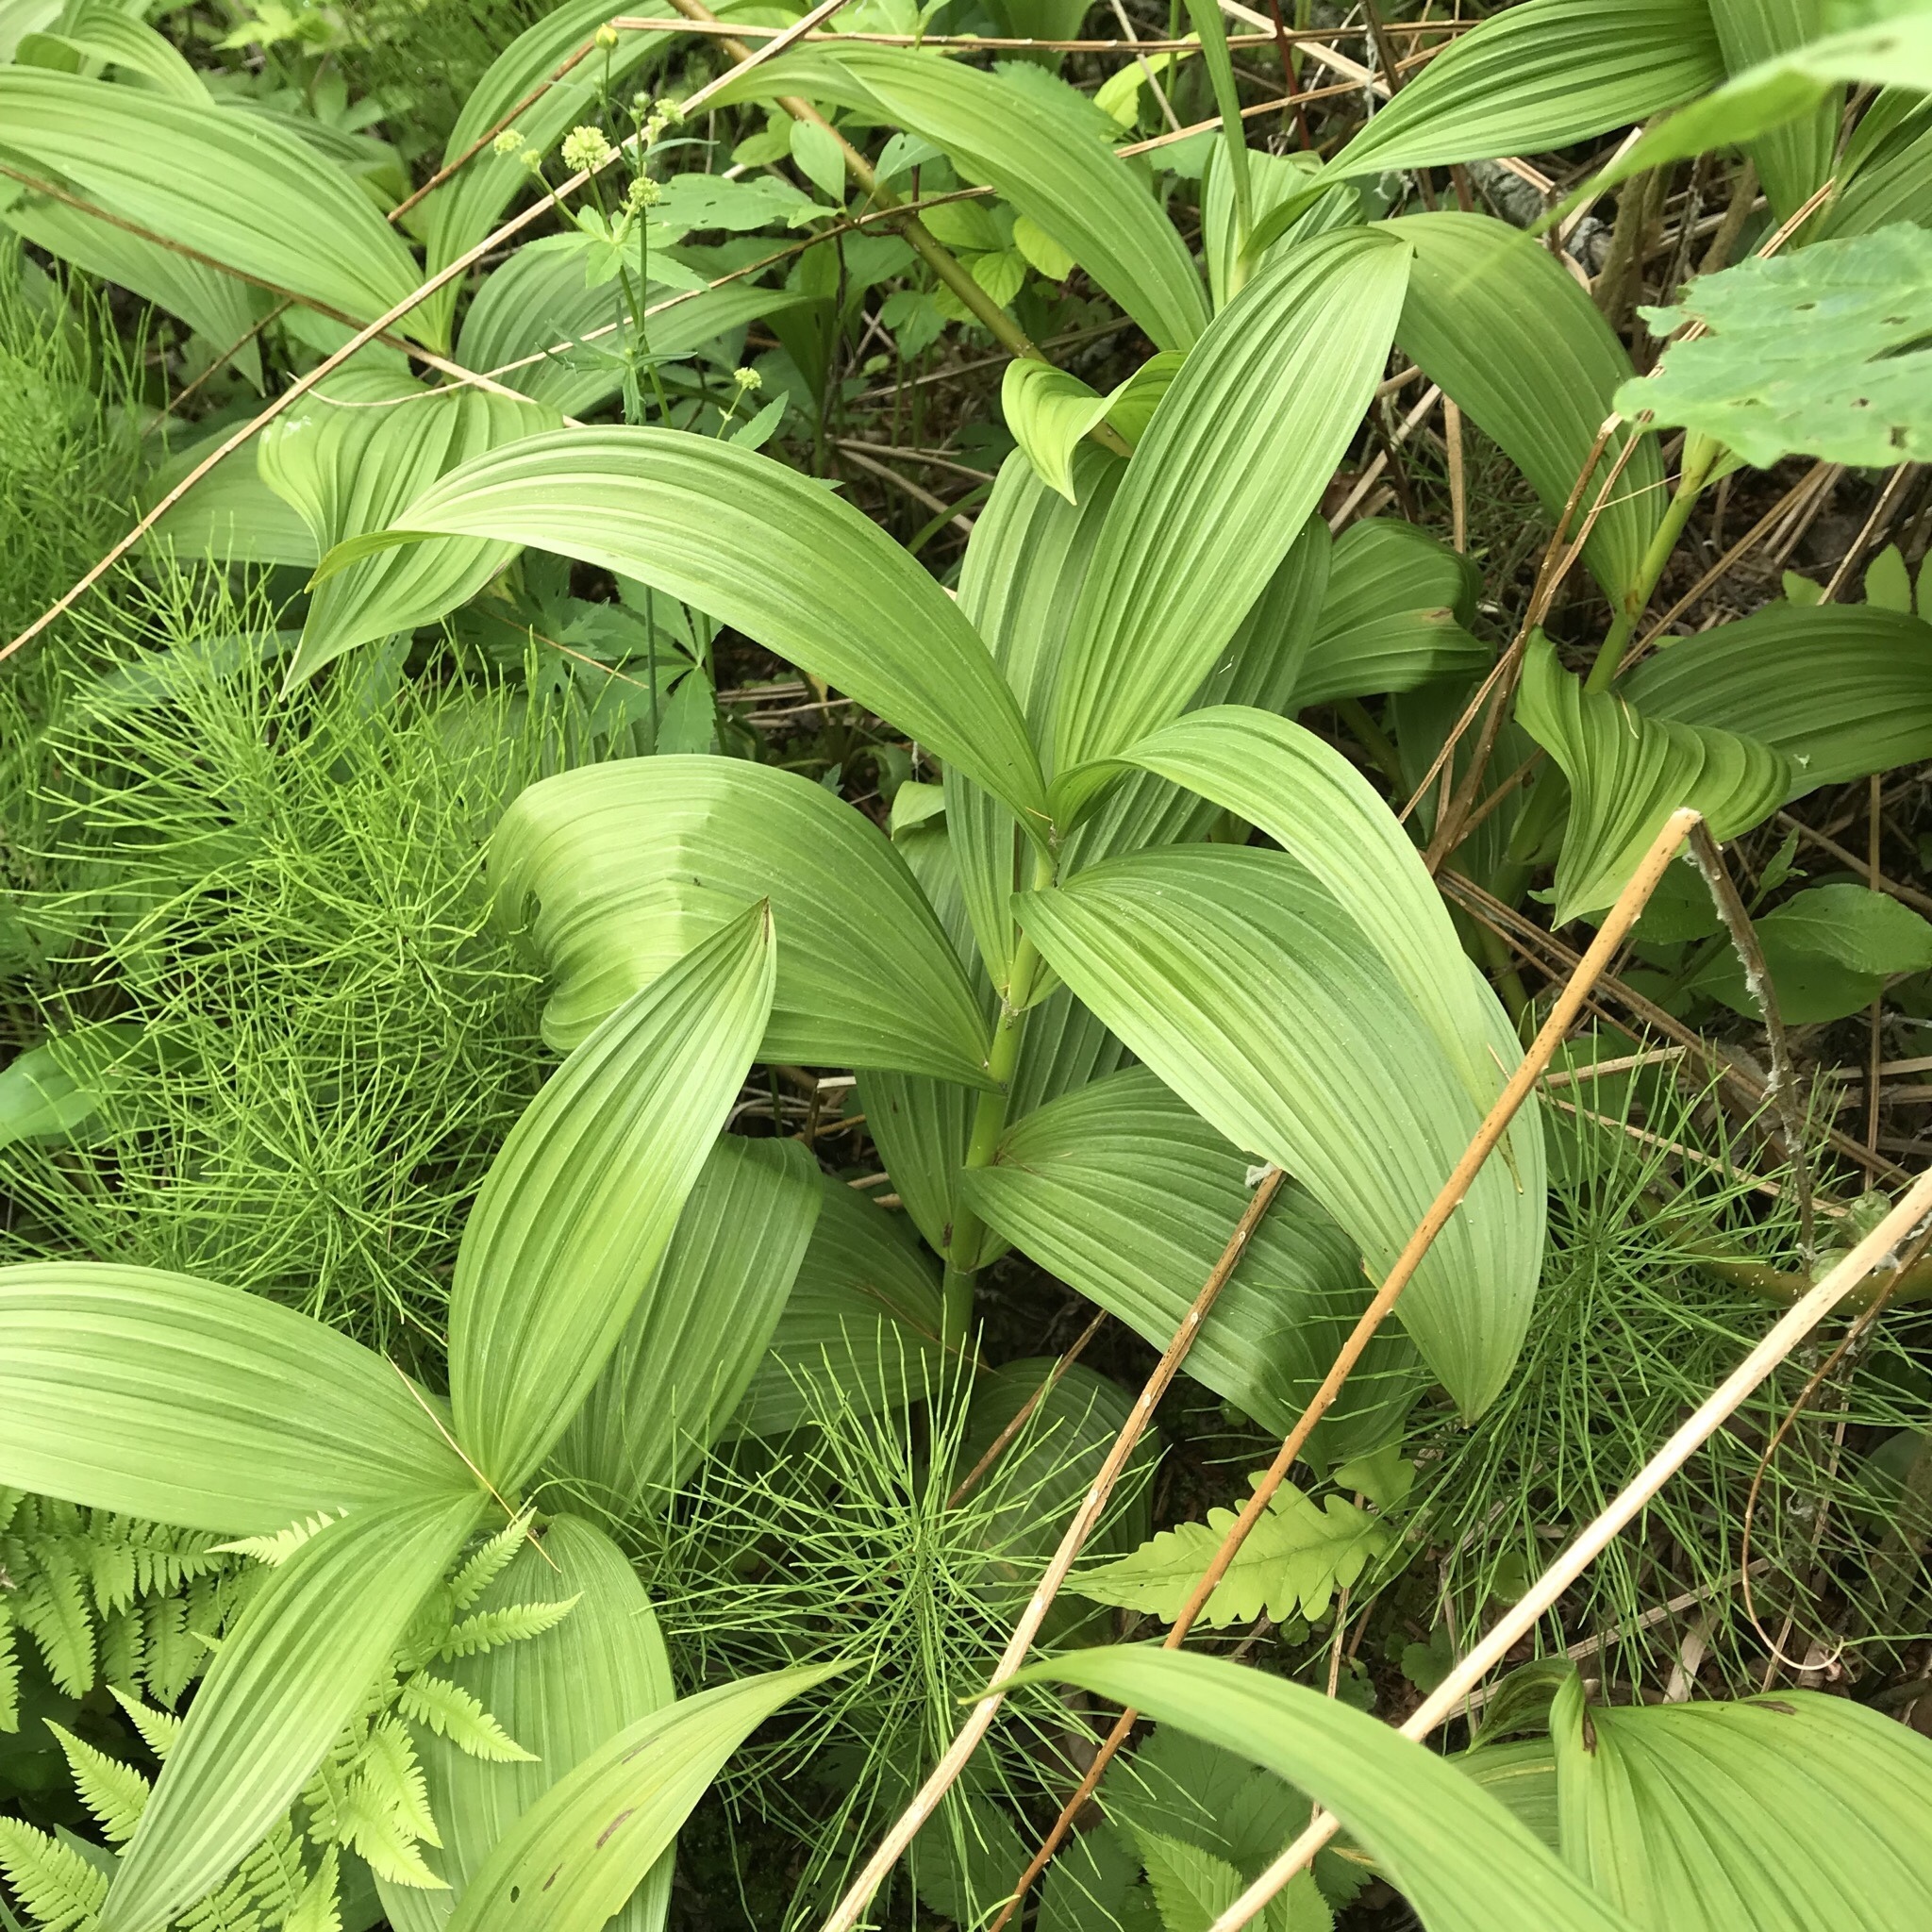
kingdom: Plantae
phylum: Tracheophyta
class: Liliopsida
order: Liliales
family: Melanthiaceae
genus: Veratrum
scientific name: Veratrum viride
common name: American false hellebore
